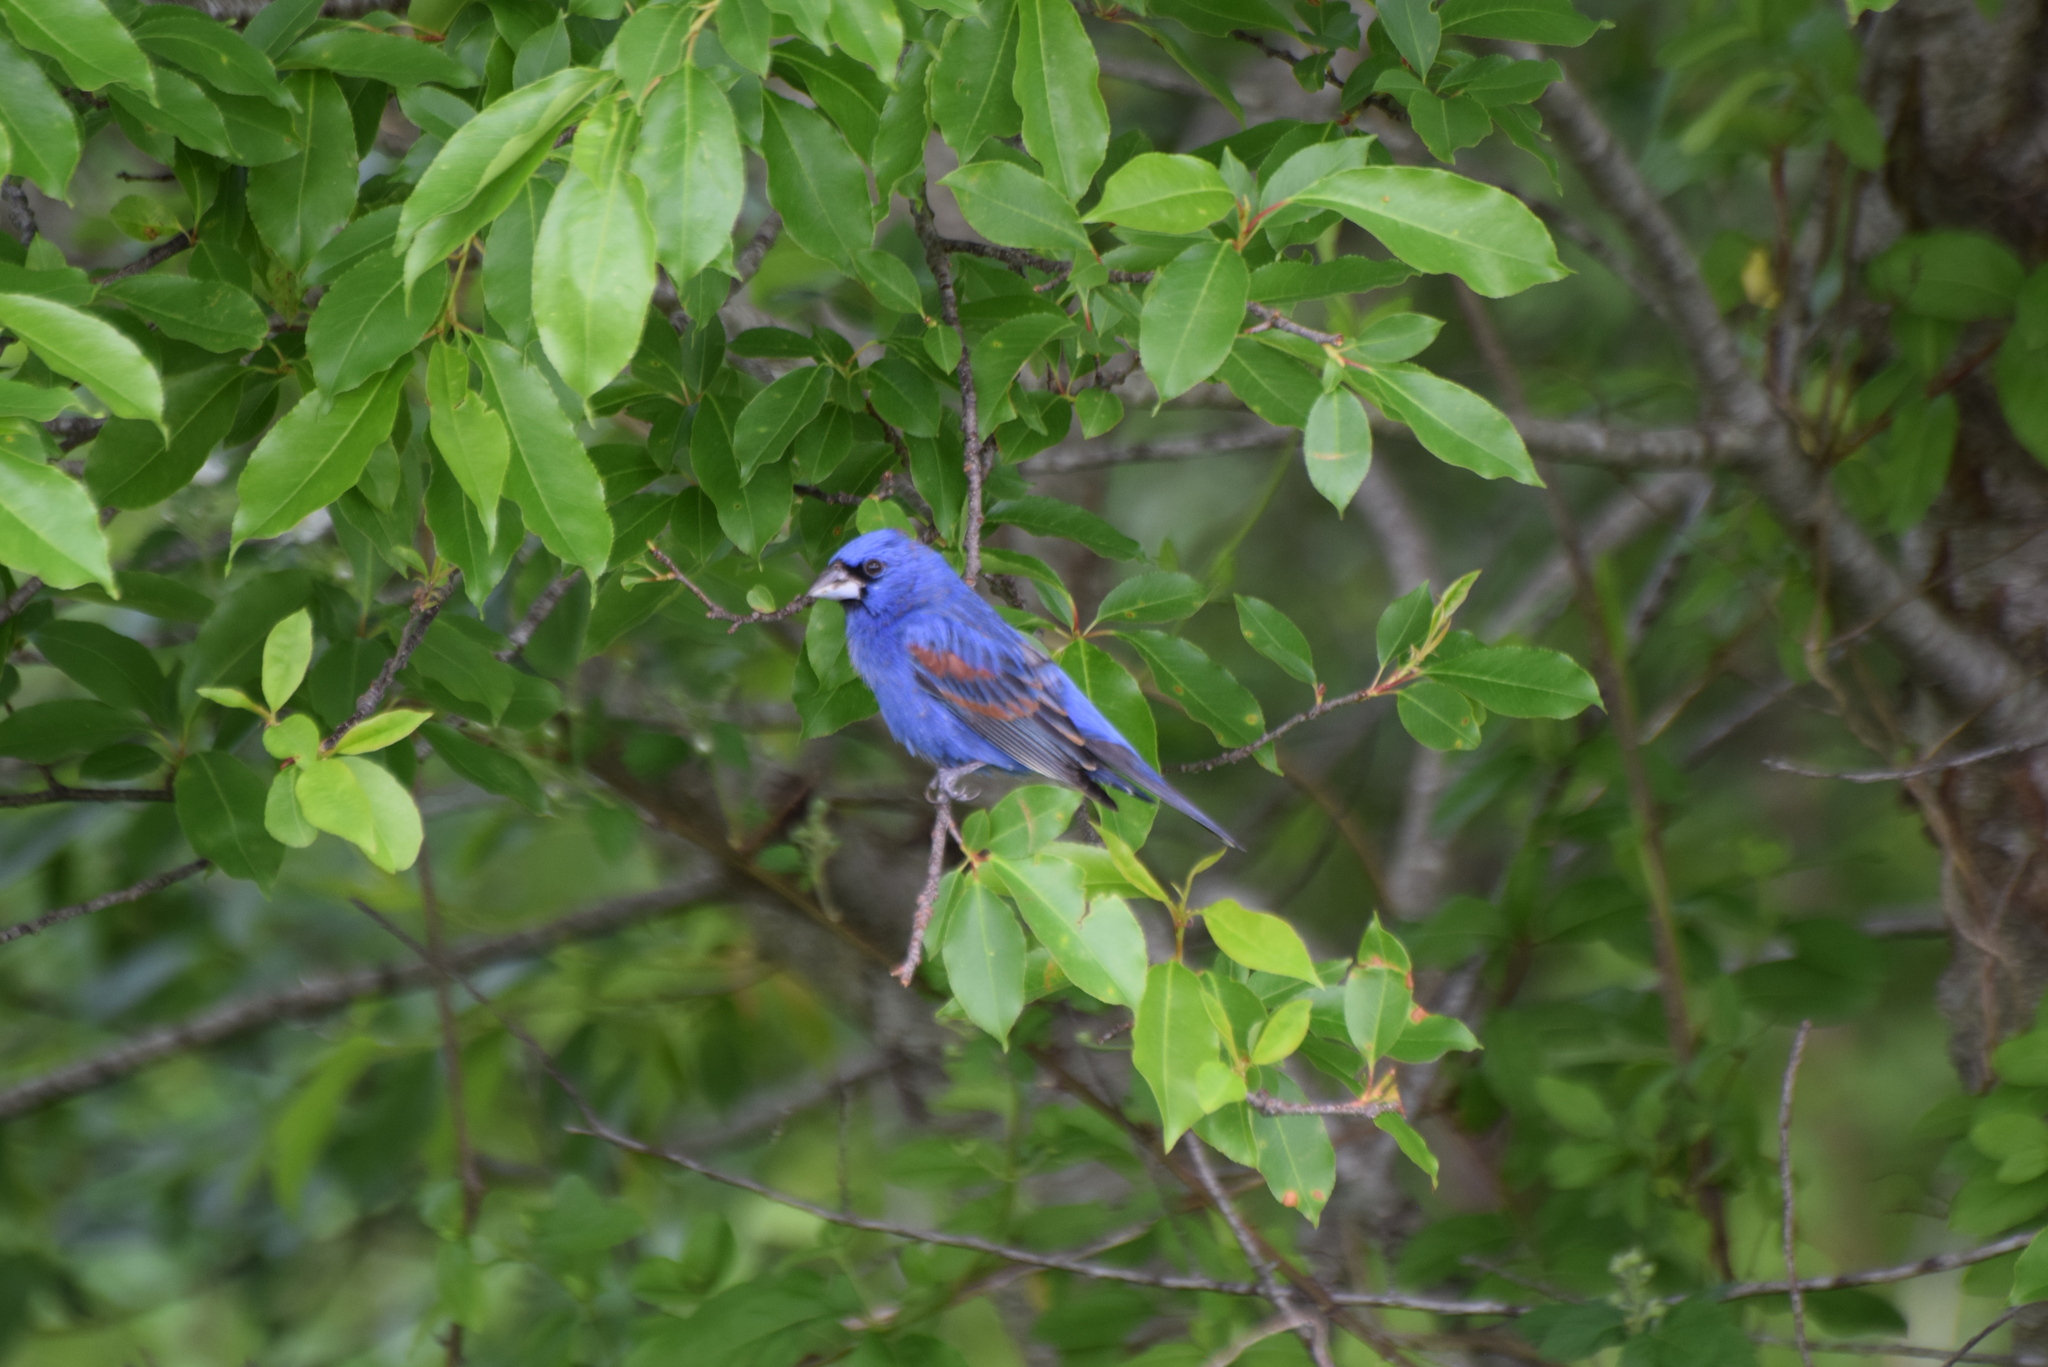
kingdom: Animalia
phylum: Chordata
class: Aves
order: Passeriformes
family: Cardinalidae
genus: Passerina
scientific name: Passerina caerulea
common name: Blue grosbeak
